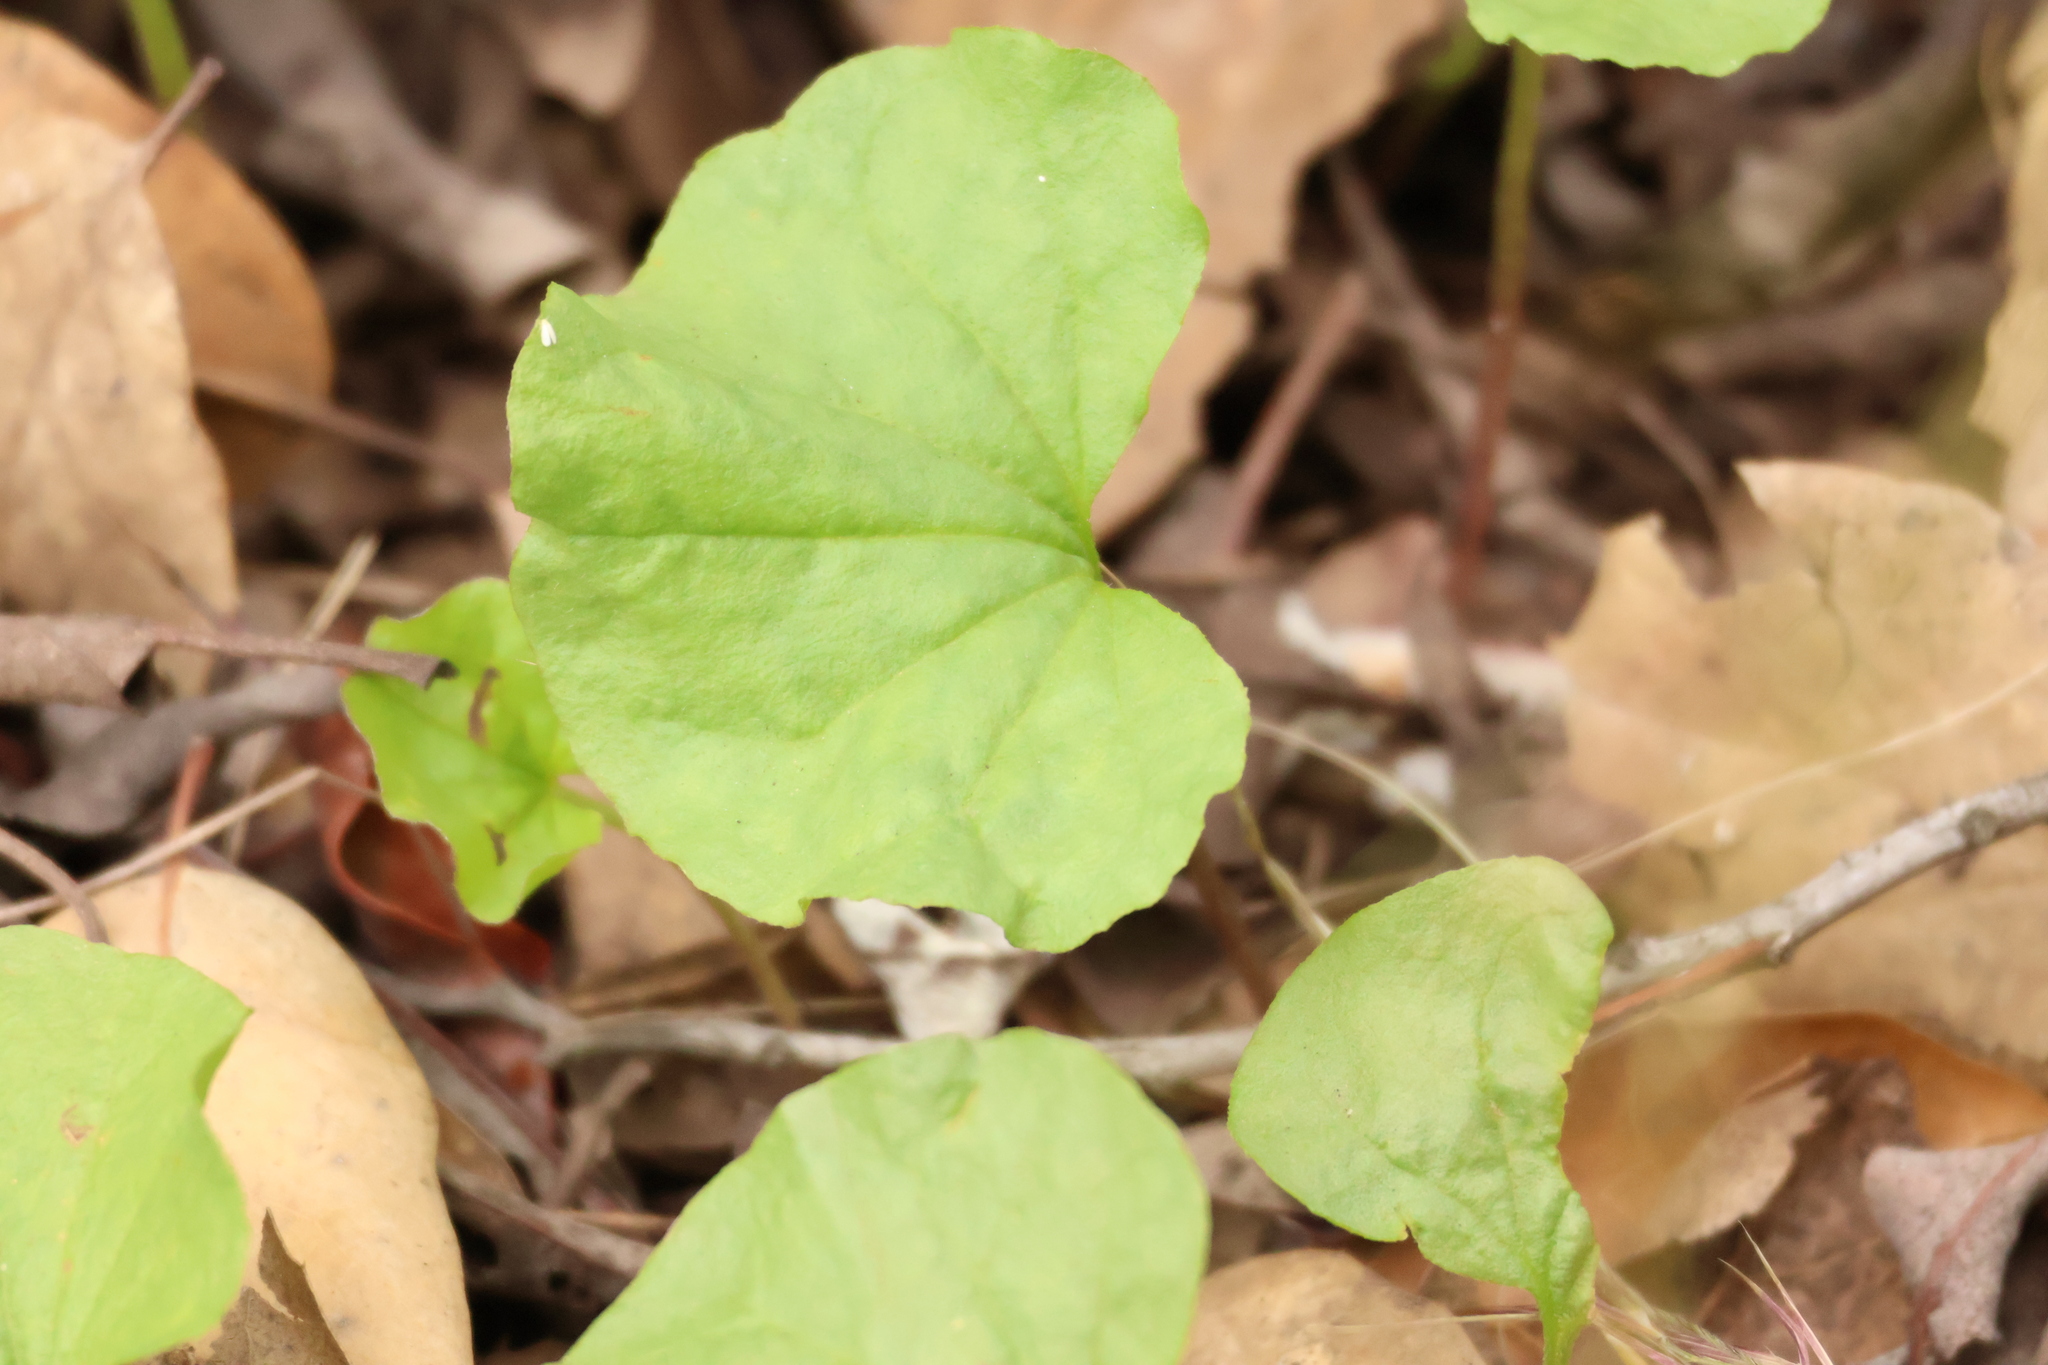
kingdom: Plantae
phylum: Tracheophyta
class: Magnoliopsida
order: Solanales
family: Convolvulaceae
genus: Dichondra
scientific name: Dichondra occidentalis
